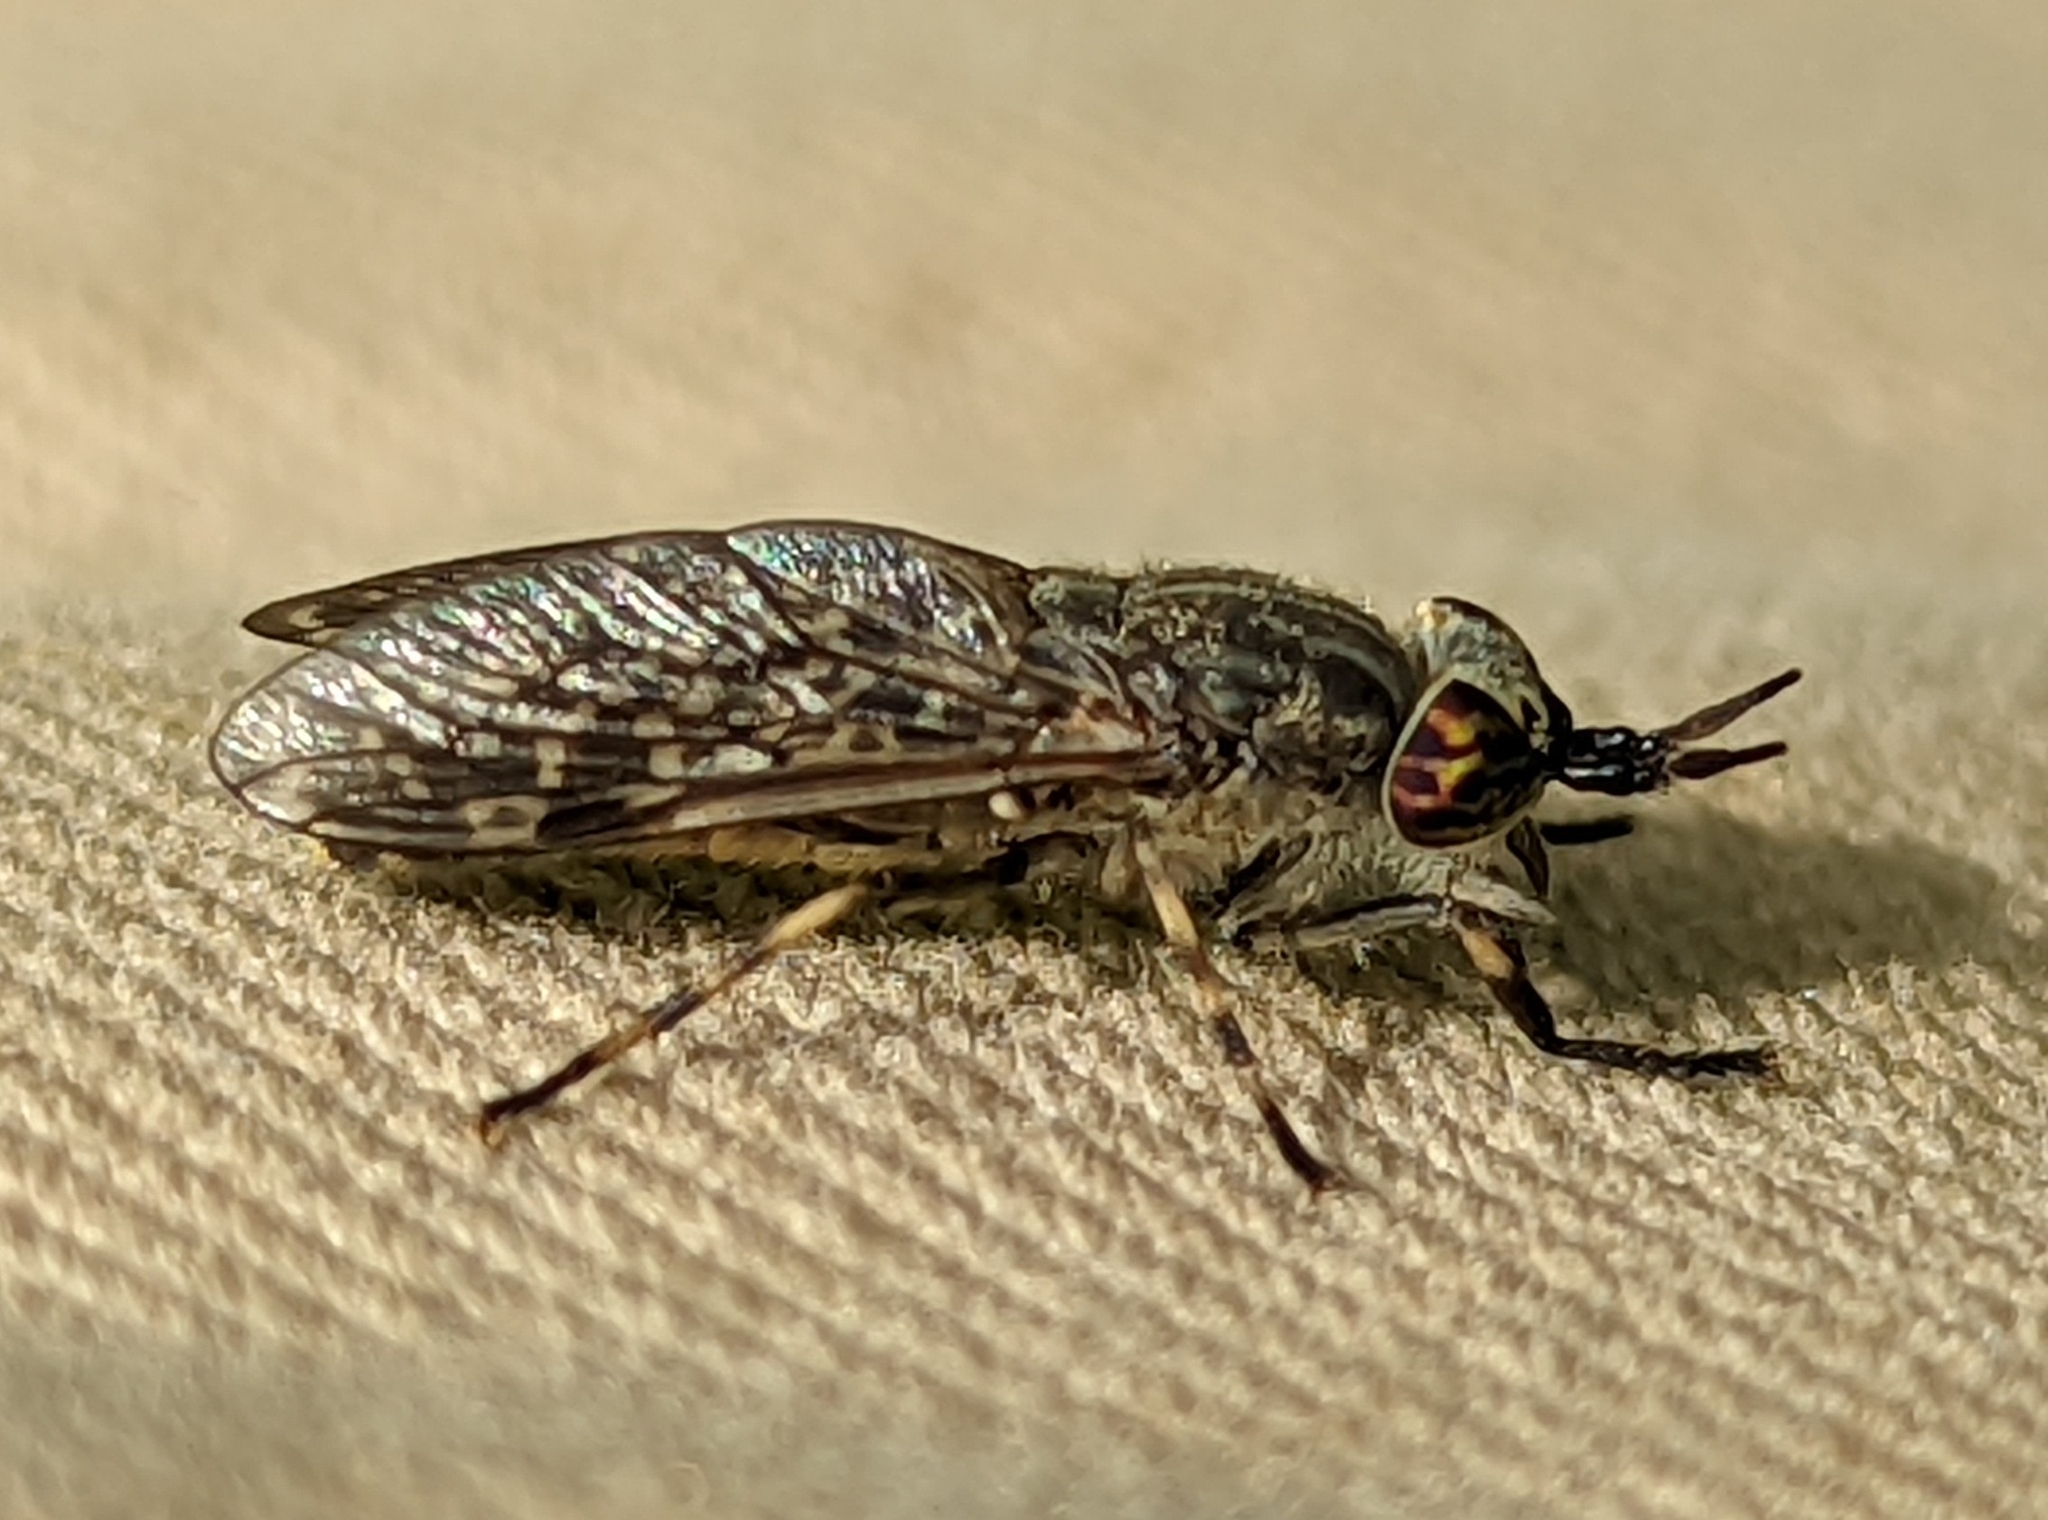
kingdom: Animalia
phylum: Arthropoda
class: Insecta
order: Diptera
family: Tabanidae
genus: Haematopota
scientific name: Haematopota pluvialis
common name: Common horse fly
